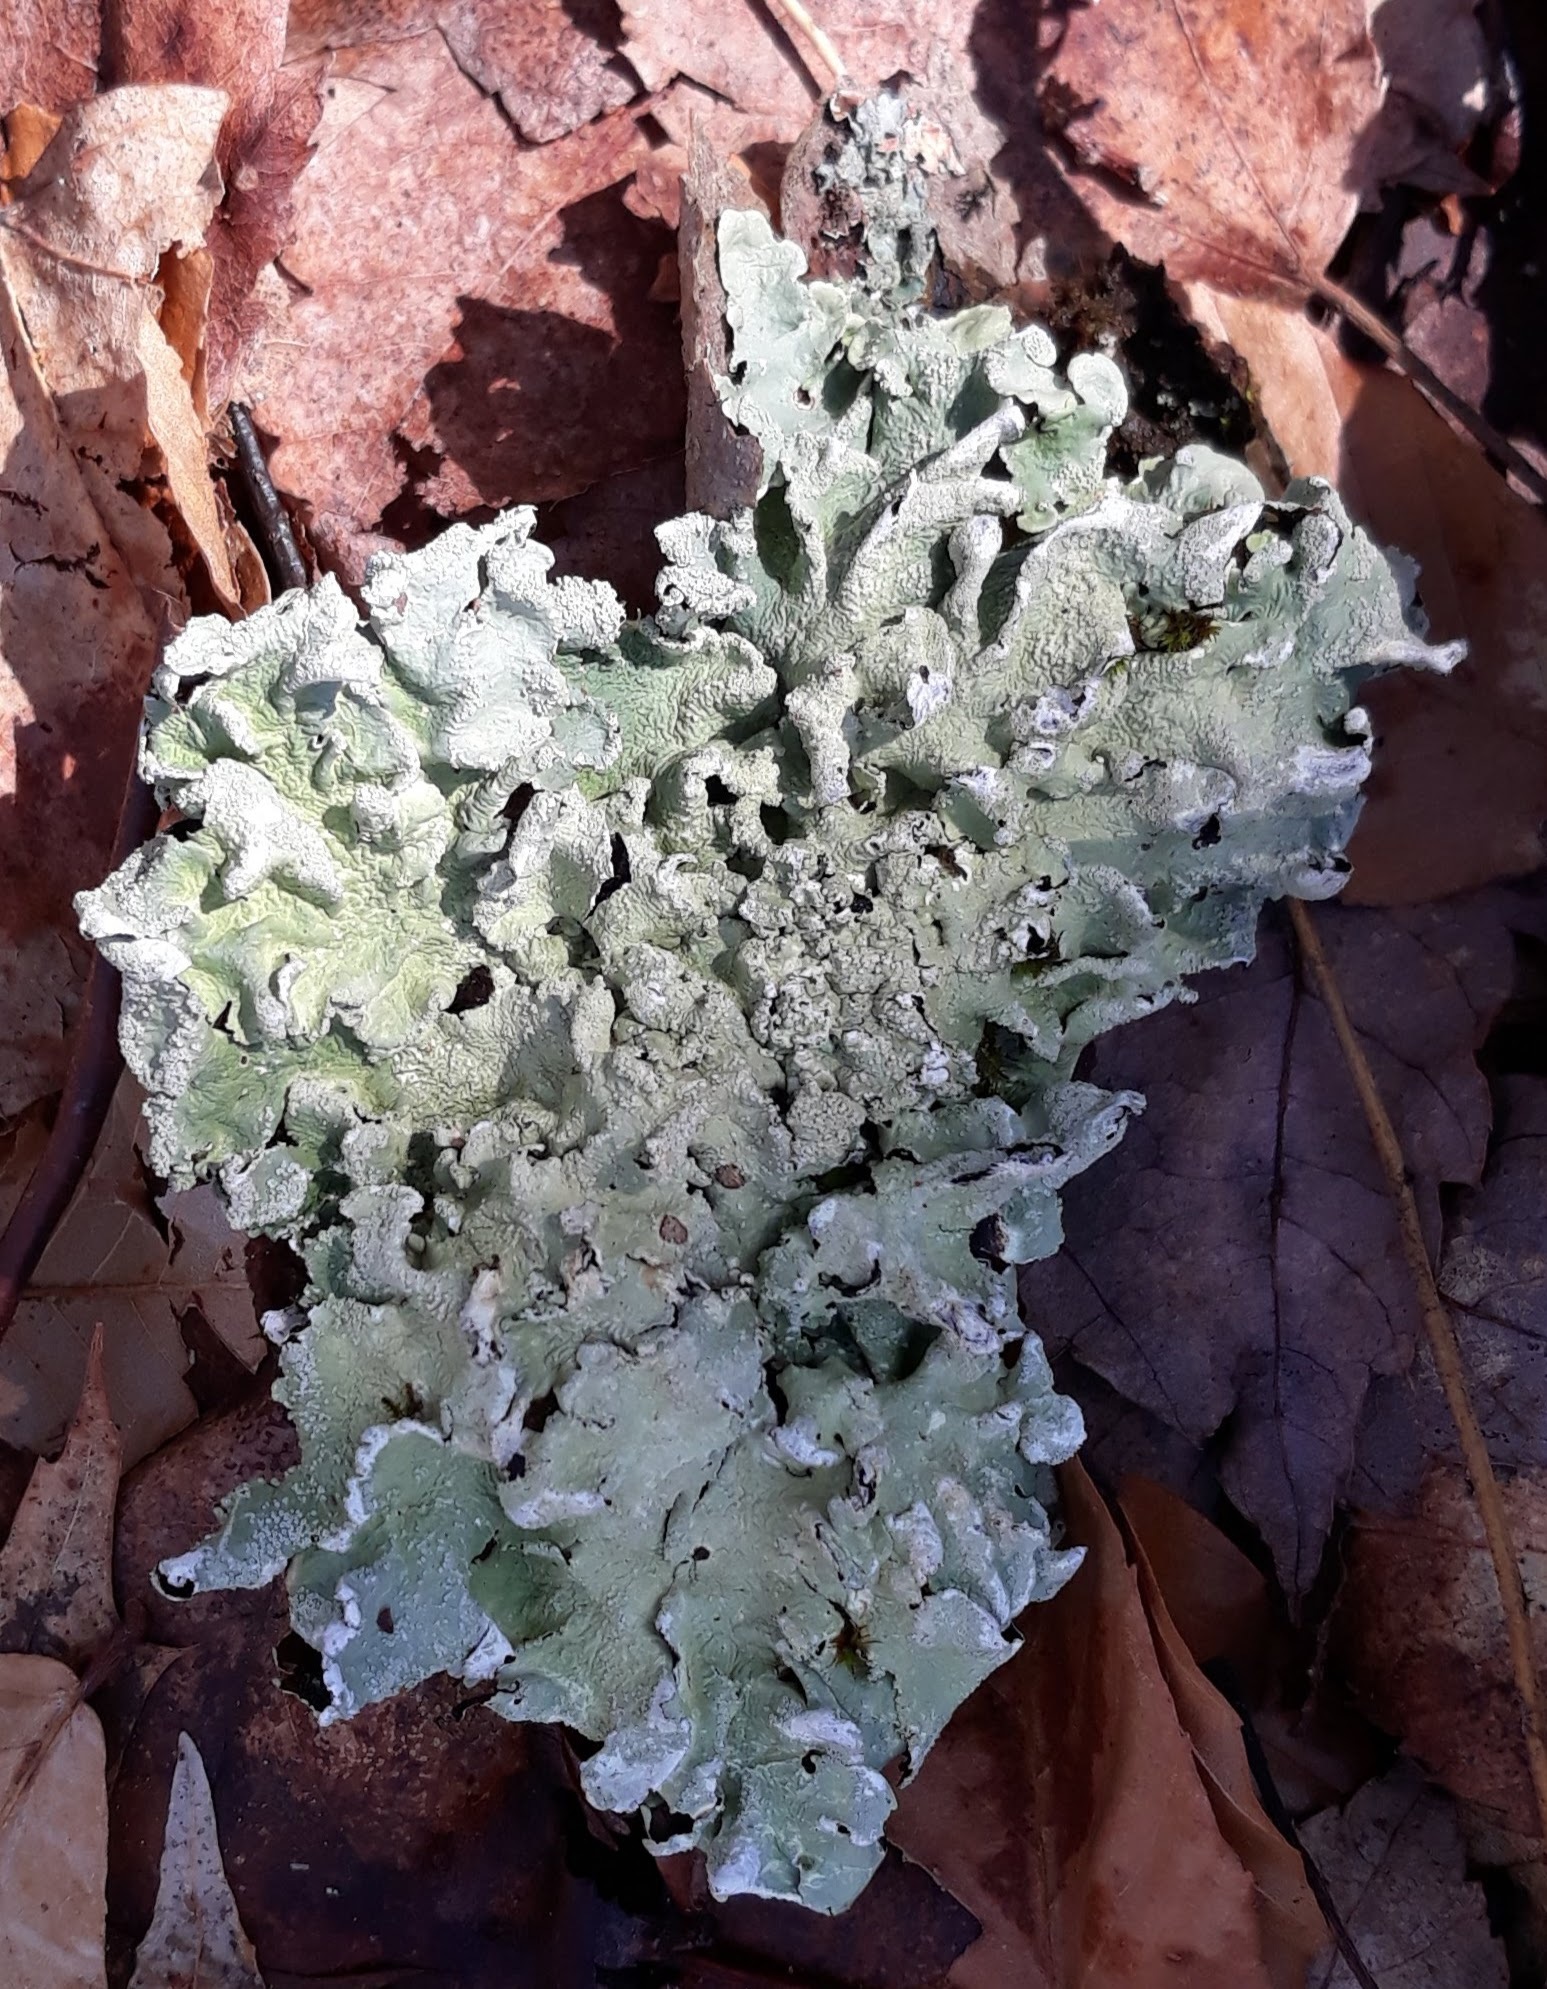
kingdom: Fungi
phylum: Ascomycota
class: Lecanoromycetes
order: Lecanorales
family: Parmeliaceae
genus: Flavoparmelia
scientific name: Flavoparmelia caperata
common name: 40-mile per hour lichen
